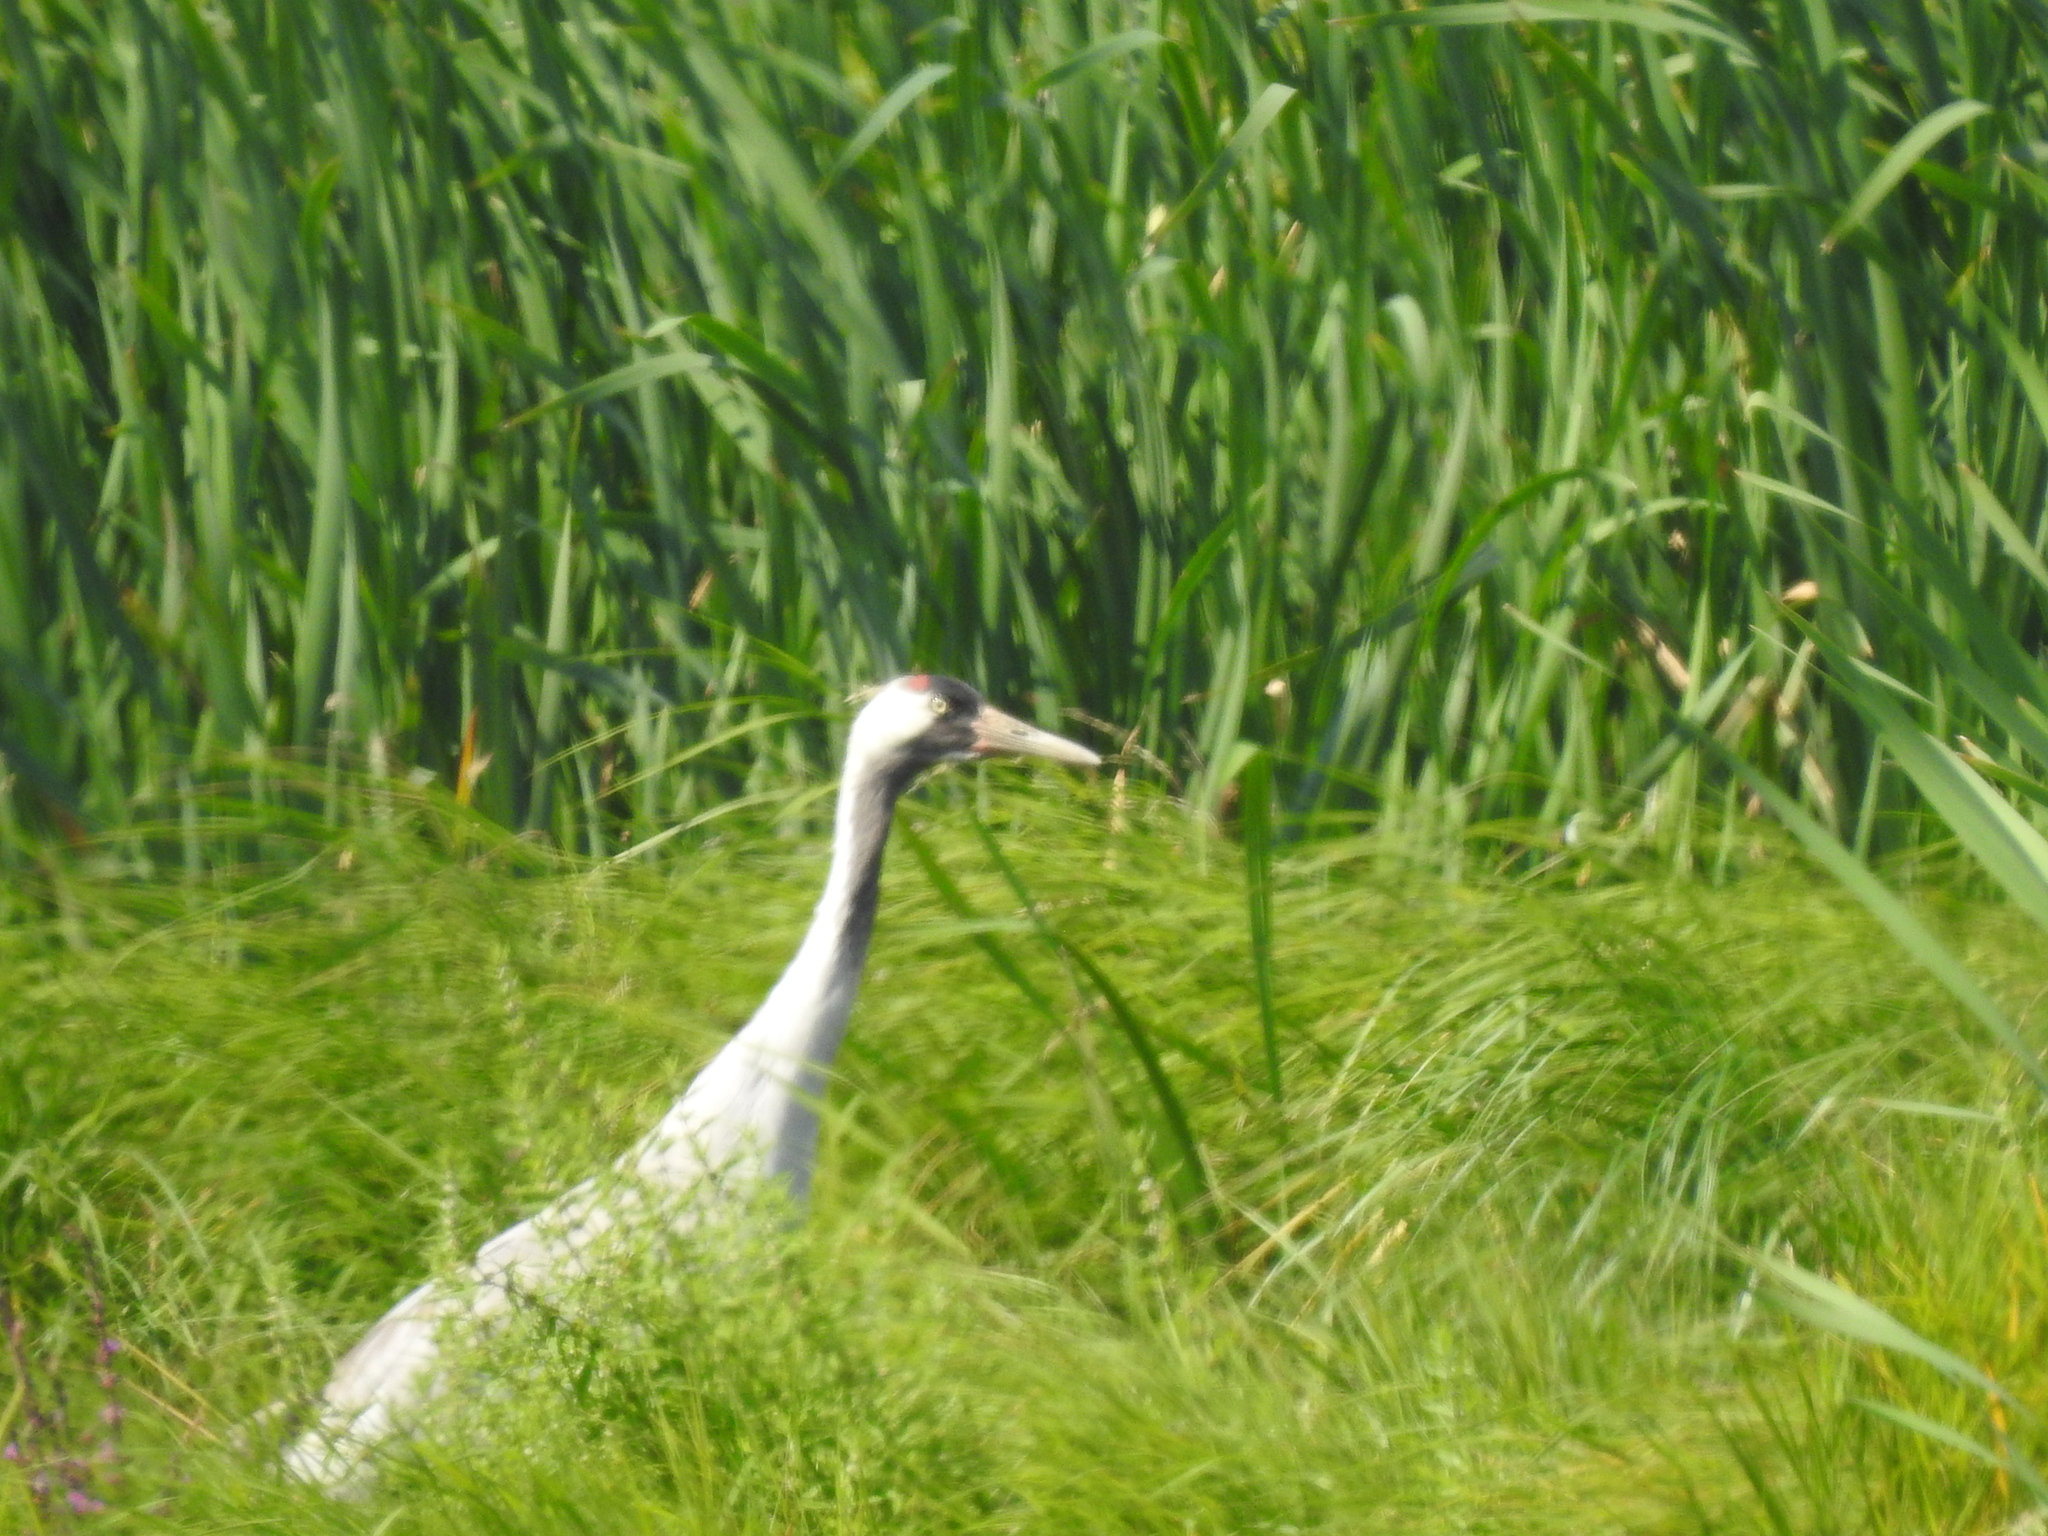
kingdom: Animalia
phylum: Chordata
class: Aves
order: Gruiformes
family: Gruidae
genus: Grus
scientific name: Grus grus
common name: Common crane
